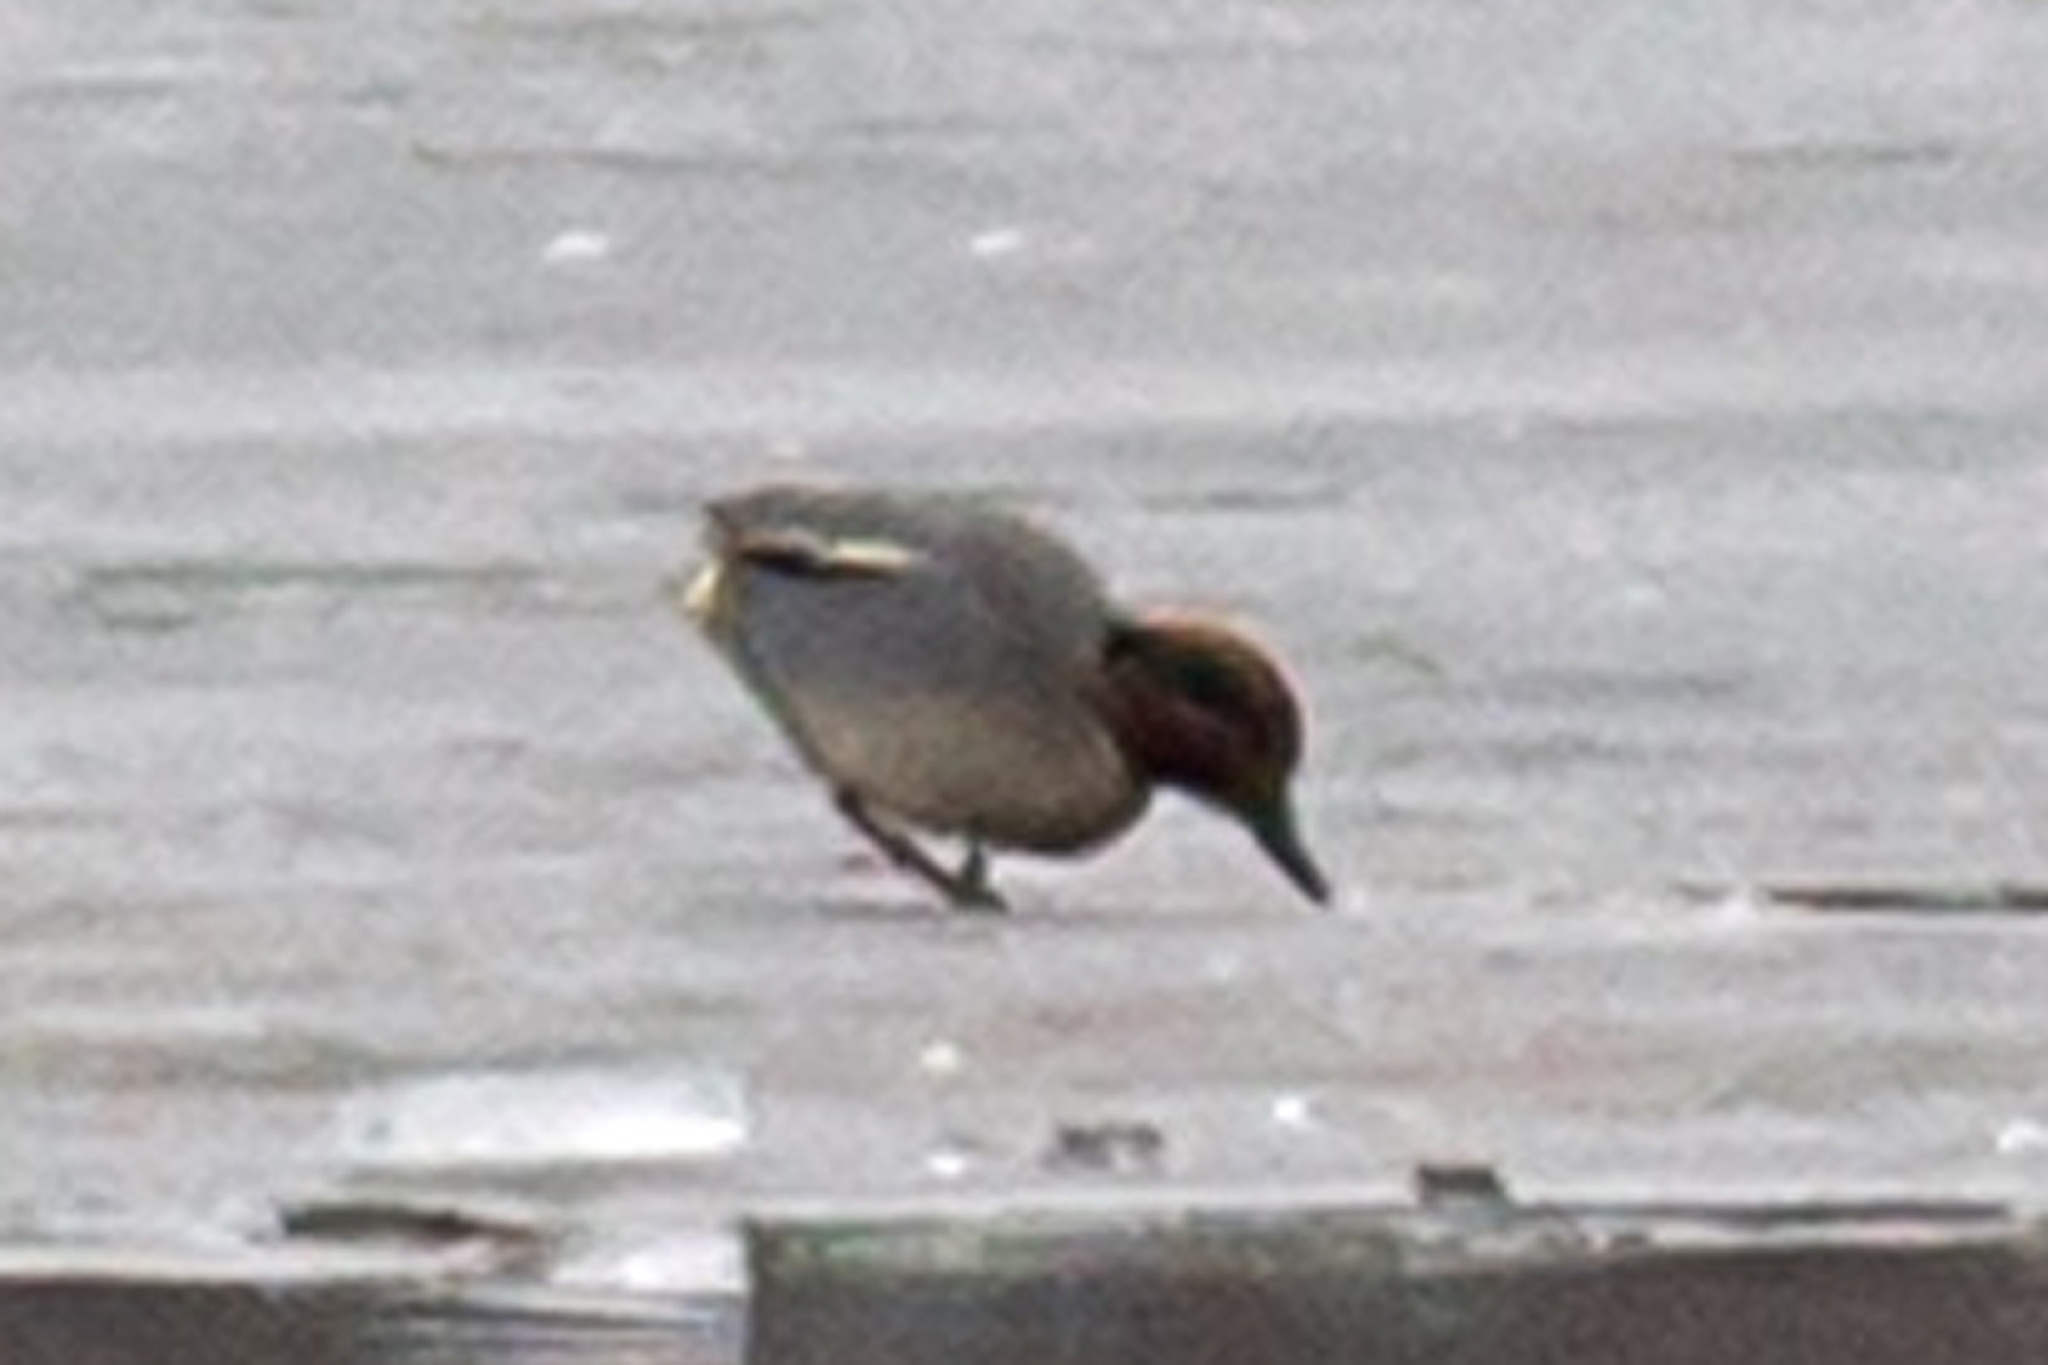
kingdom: Animalia
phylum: Chordata
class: Aves
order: Anseriformes
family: Anatidae
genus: Anas
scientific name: Anas crecca
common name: Eurasian teal
